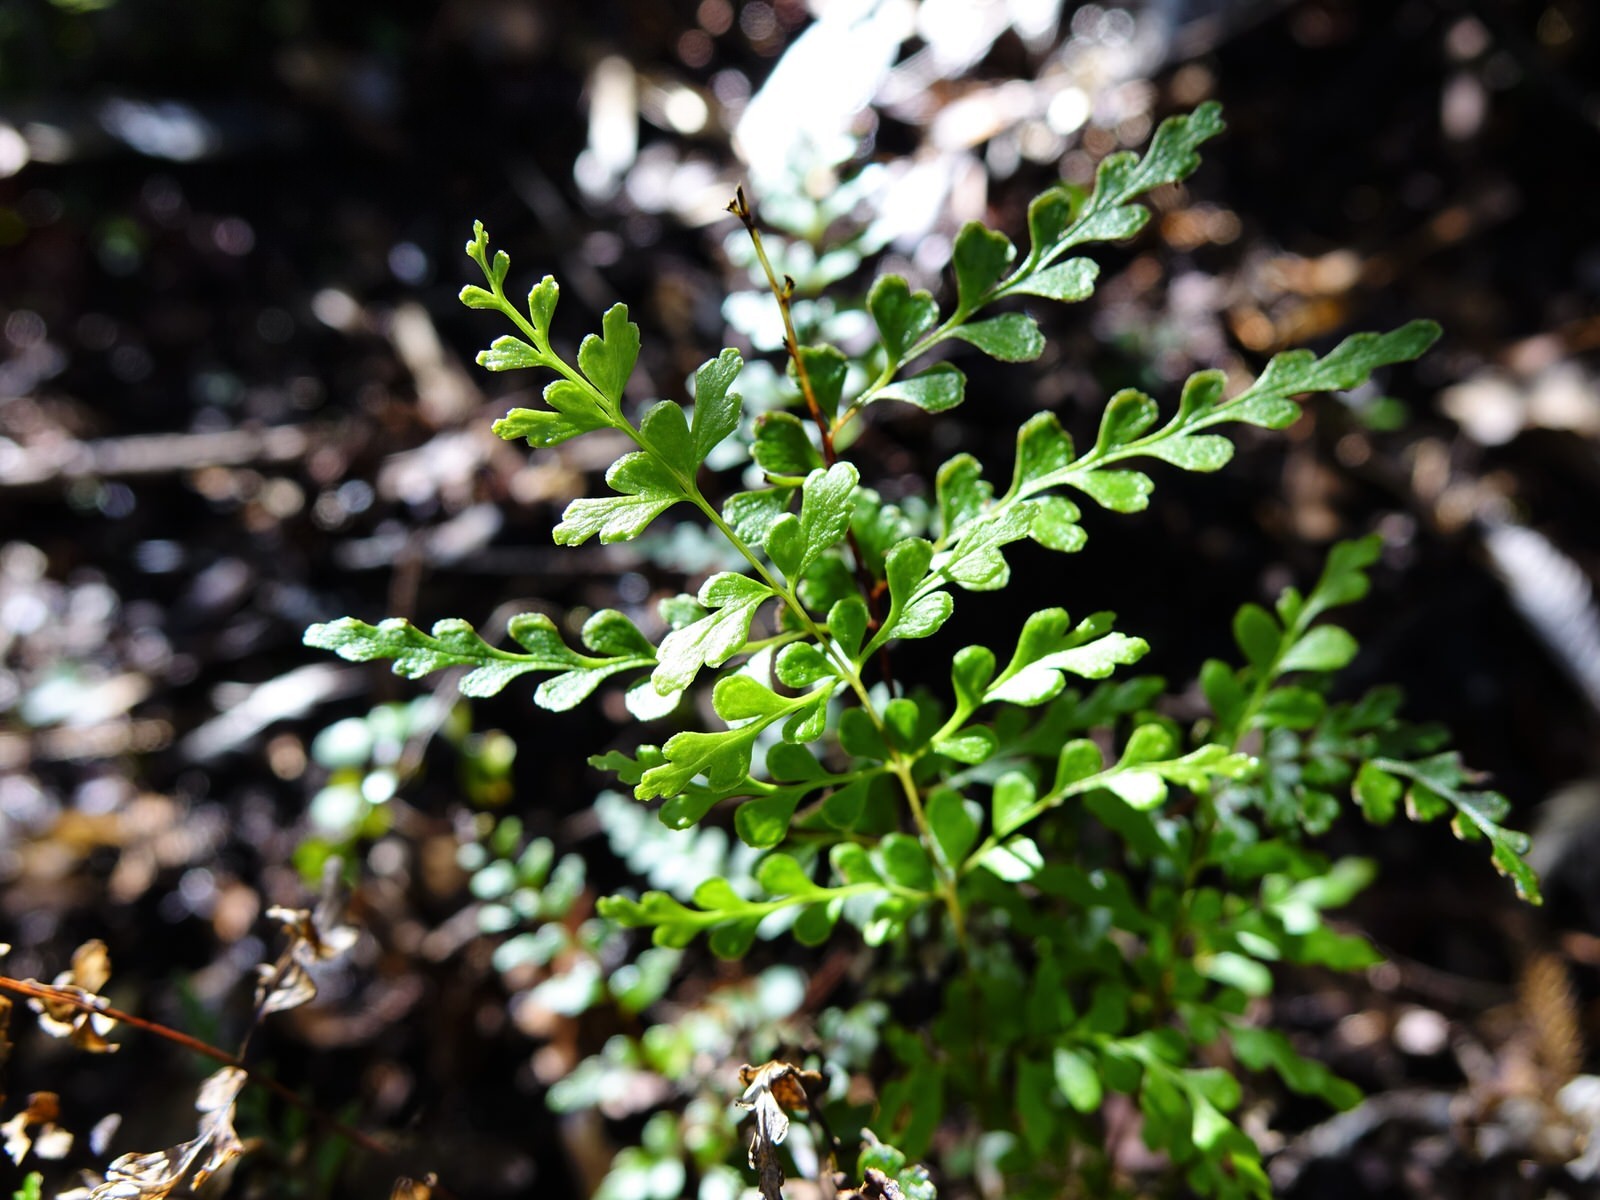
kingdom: Plantae
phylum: Tracheophyta
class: Polypodiopsida
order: Polypodiales
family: Lindsaeaceae
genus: Lindsaea
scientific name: Lindsaea trichomanoides
